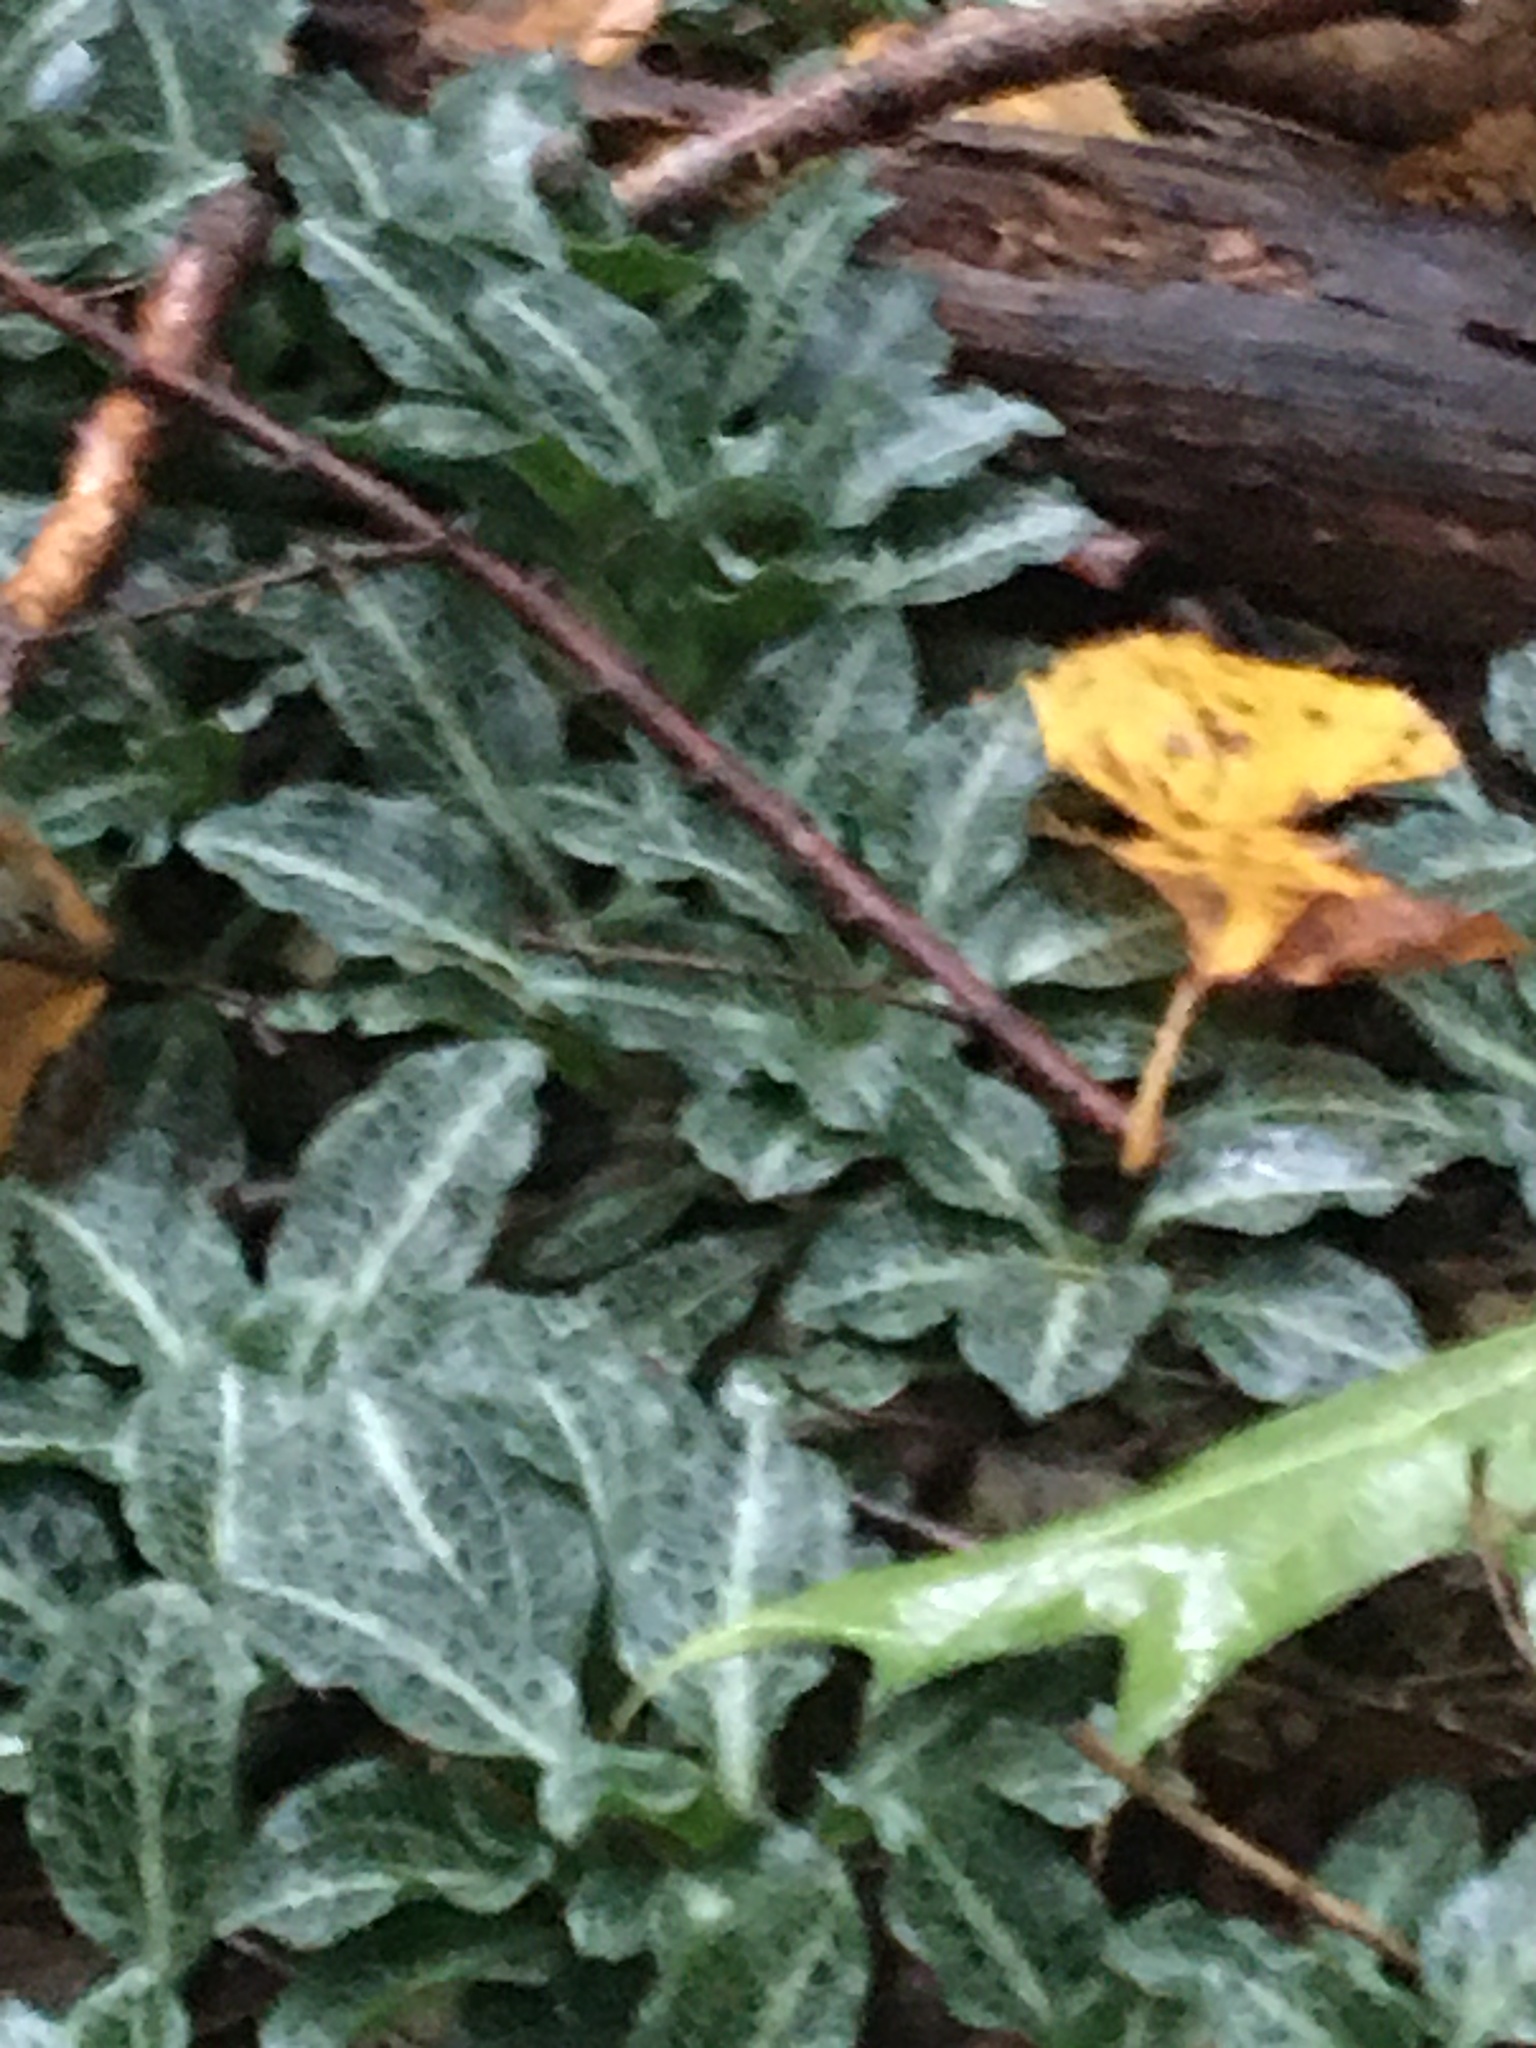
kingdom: Plantae
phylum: Tracheophyta
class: Liliopsida
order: Asparagales
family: Orchidaceae
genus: Goodyera
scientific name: Goodyera pubescens
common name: Downy rattlesnake-plantain
